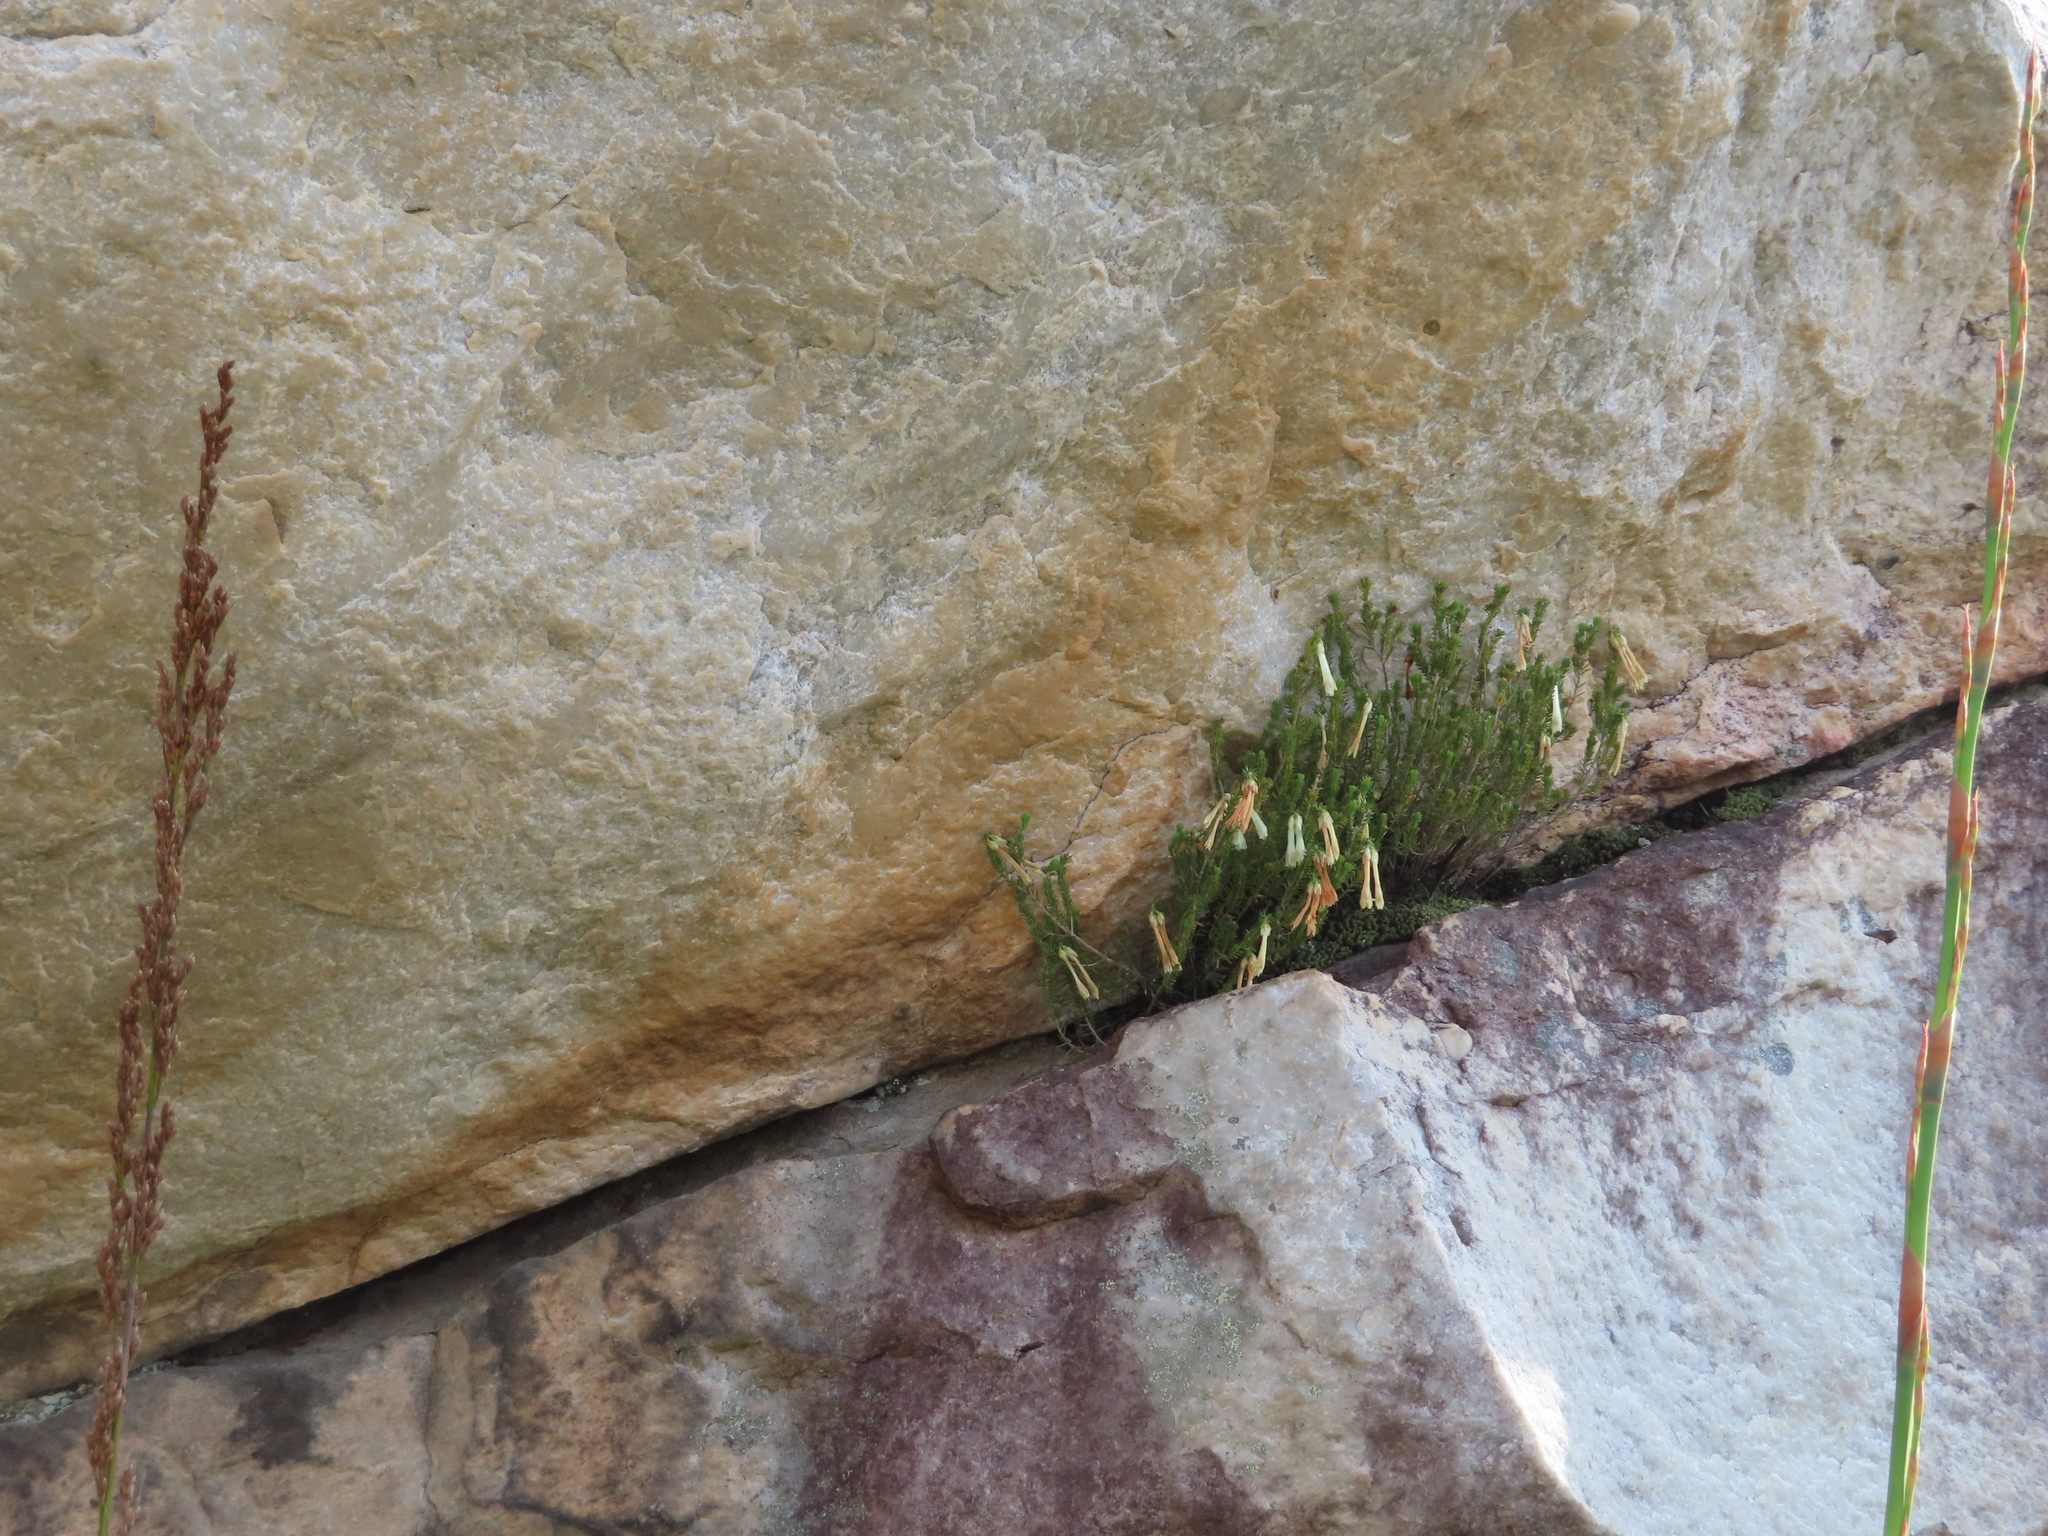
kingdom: Plantae
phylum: Tracheophyta
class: Magnoliopsida
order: Ericales
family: Ericaceae
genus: Erica
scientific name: Erica viridiflora
